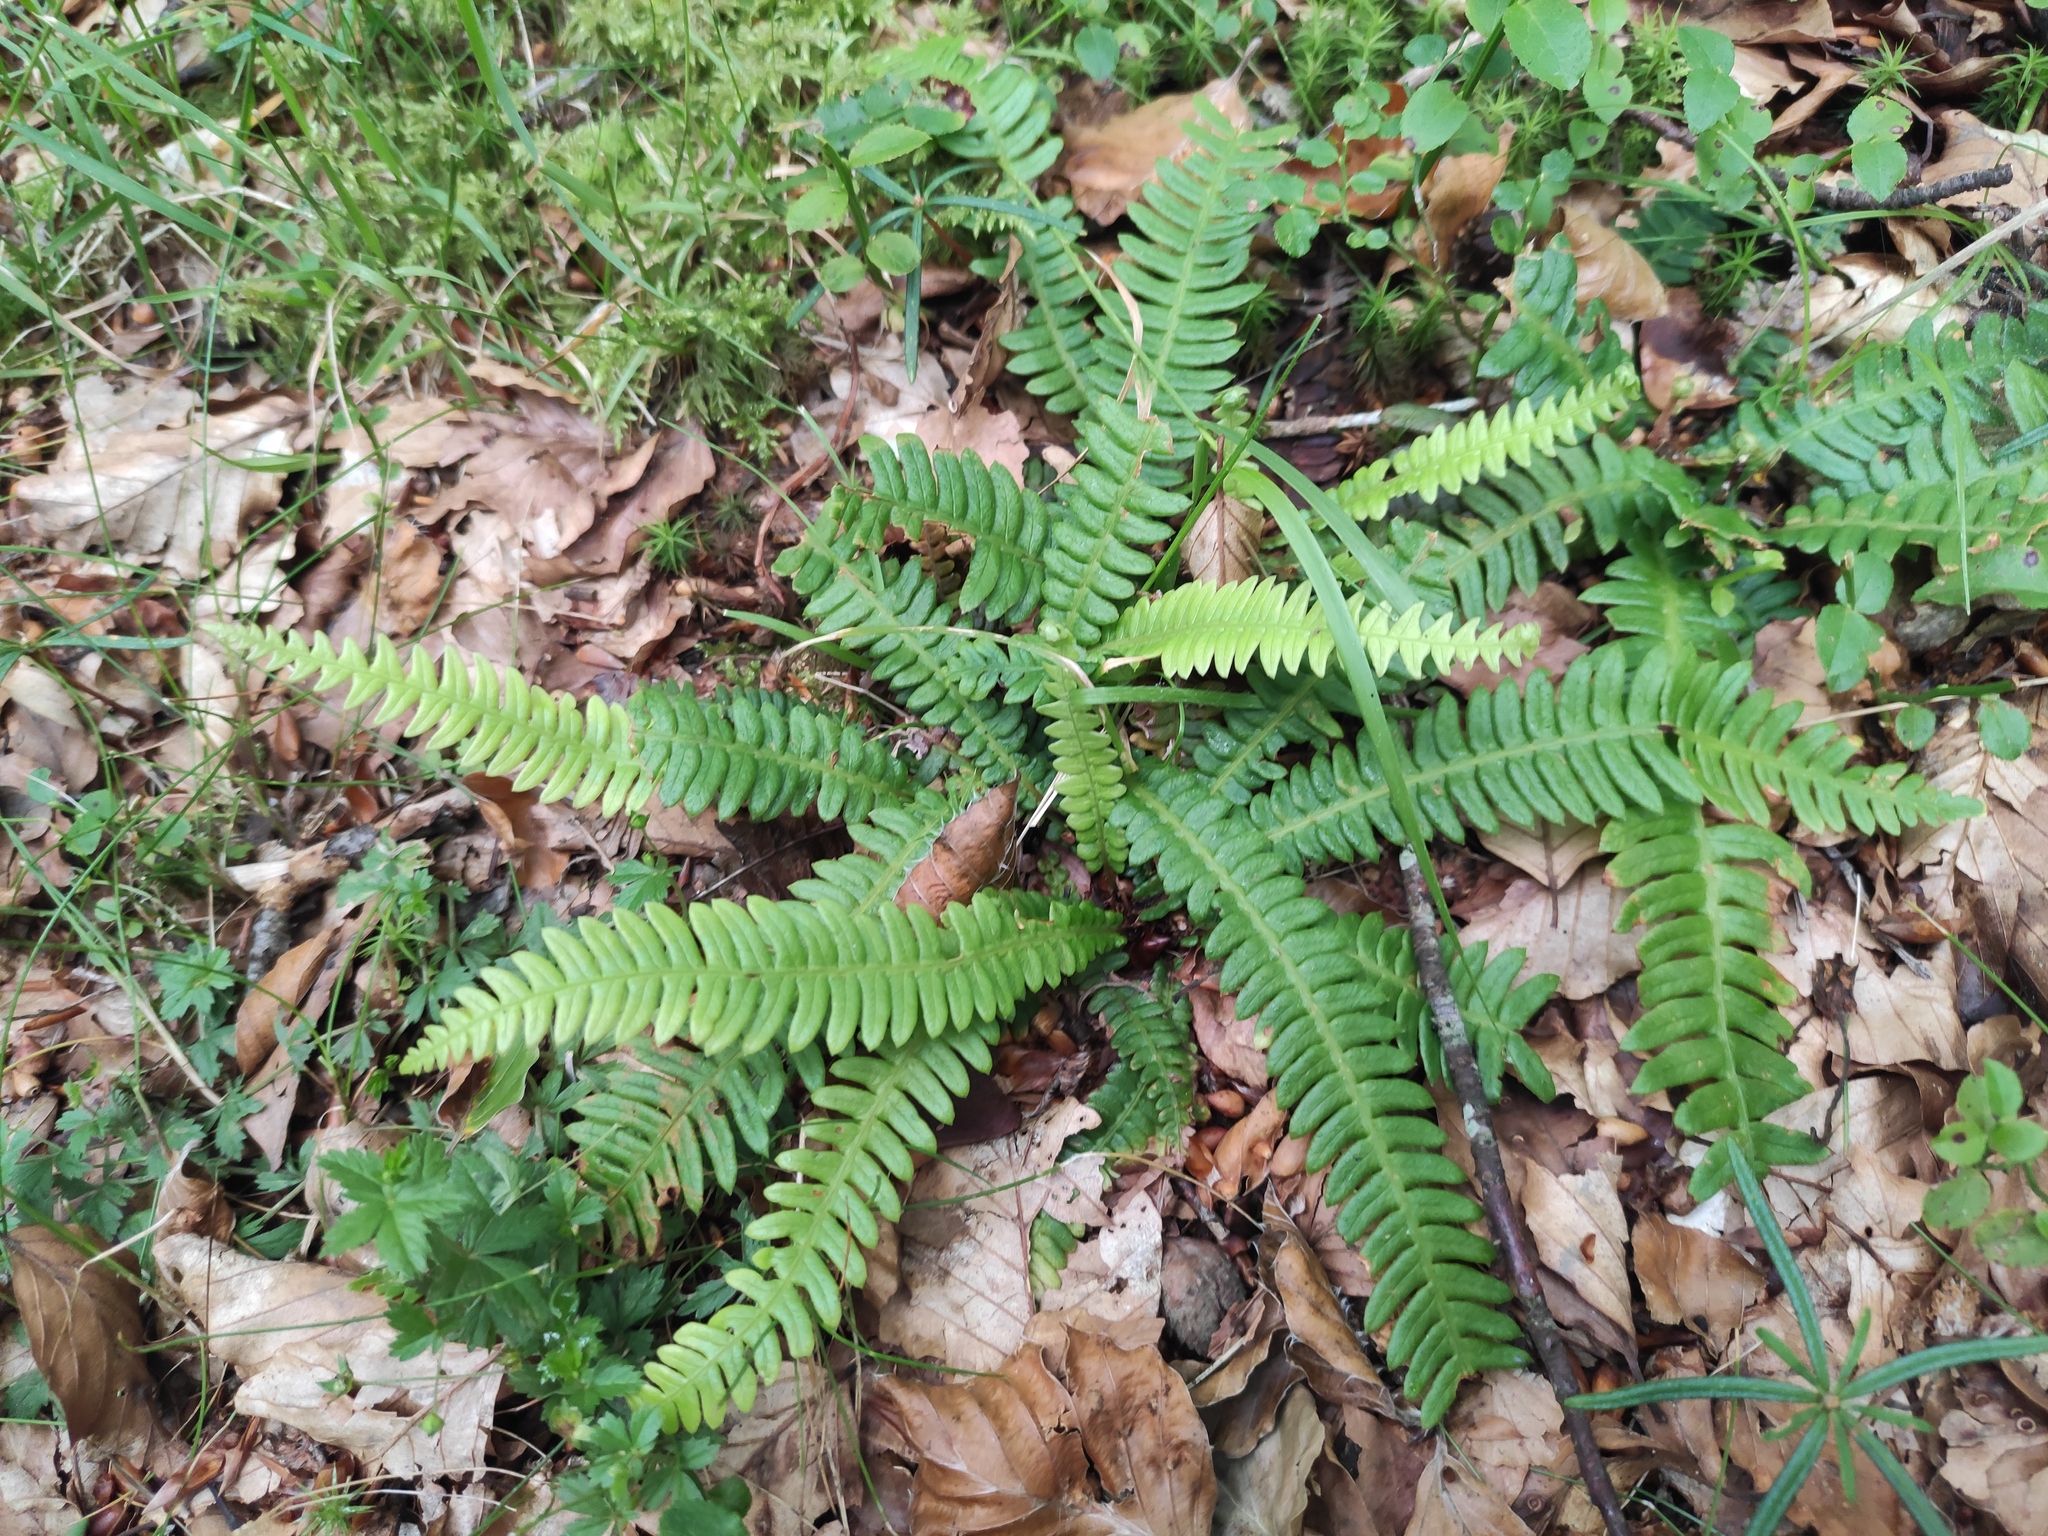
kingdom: Plantae
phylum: Tracheophyta
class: Polypodiopsida
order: Polypodiales
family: Blechnaceae
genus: Struthiopteris
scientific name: Struthiopteris spicant
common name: Deer fern
